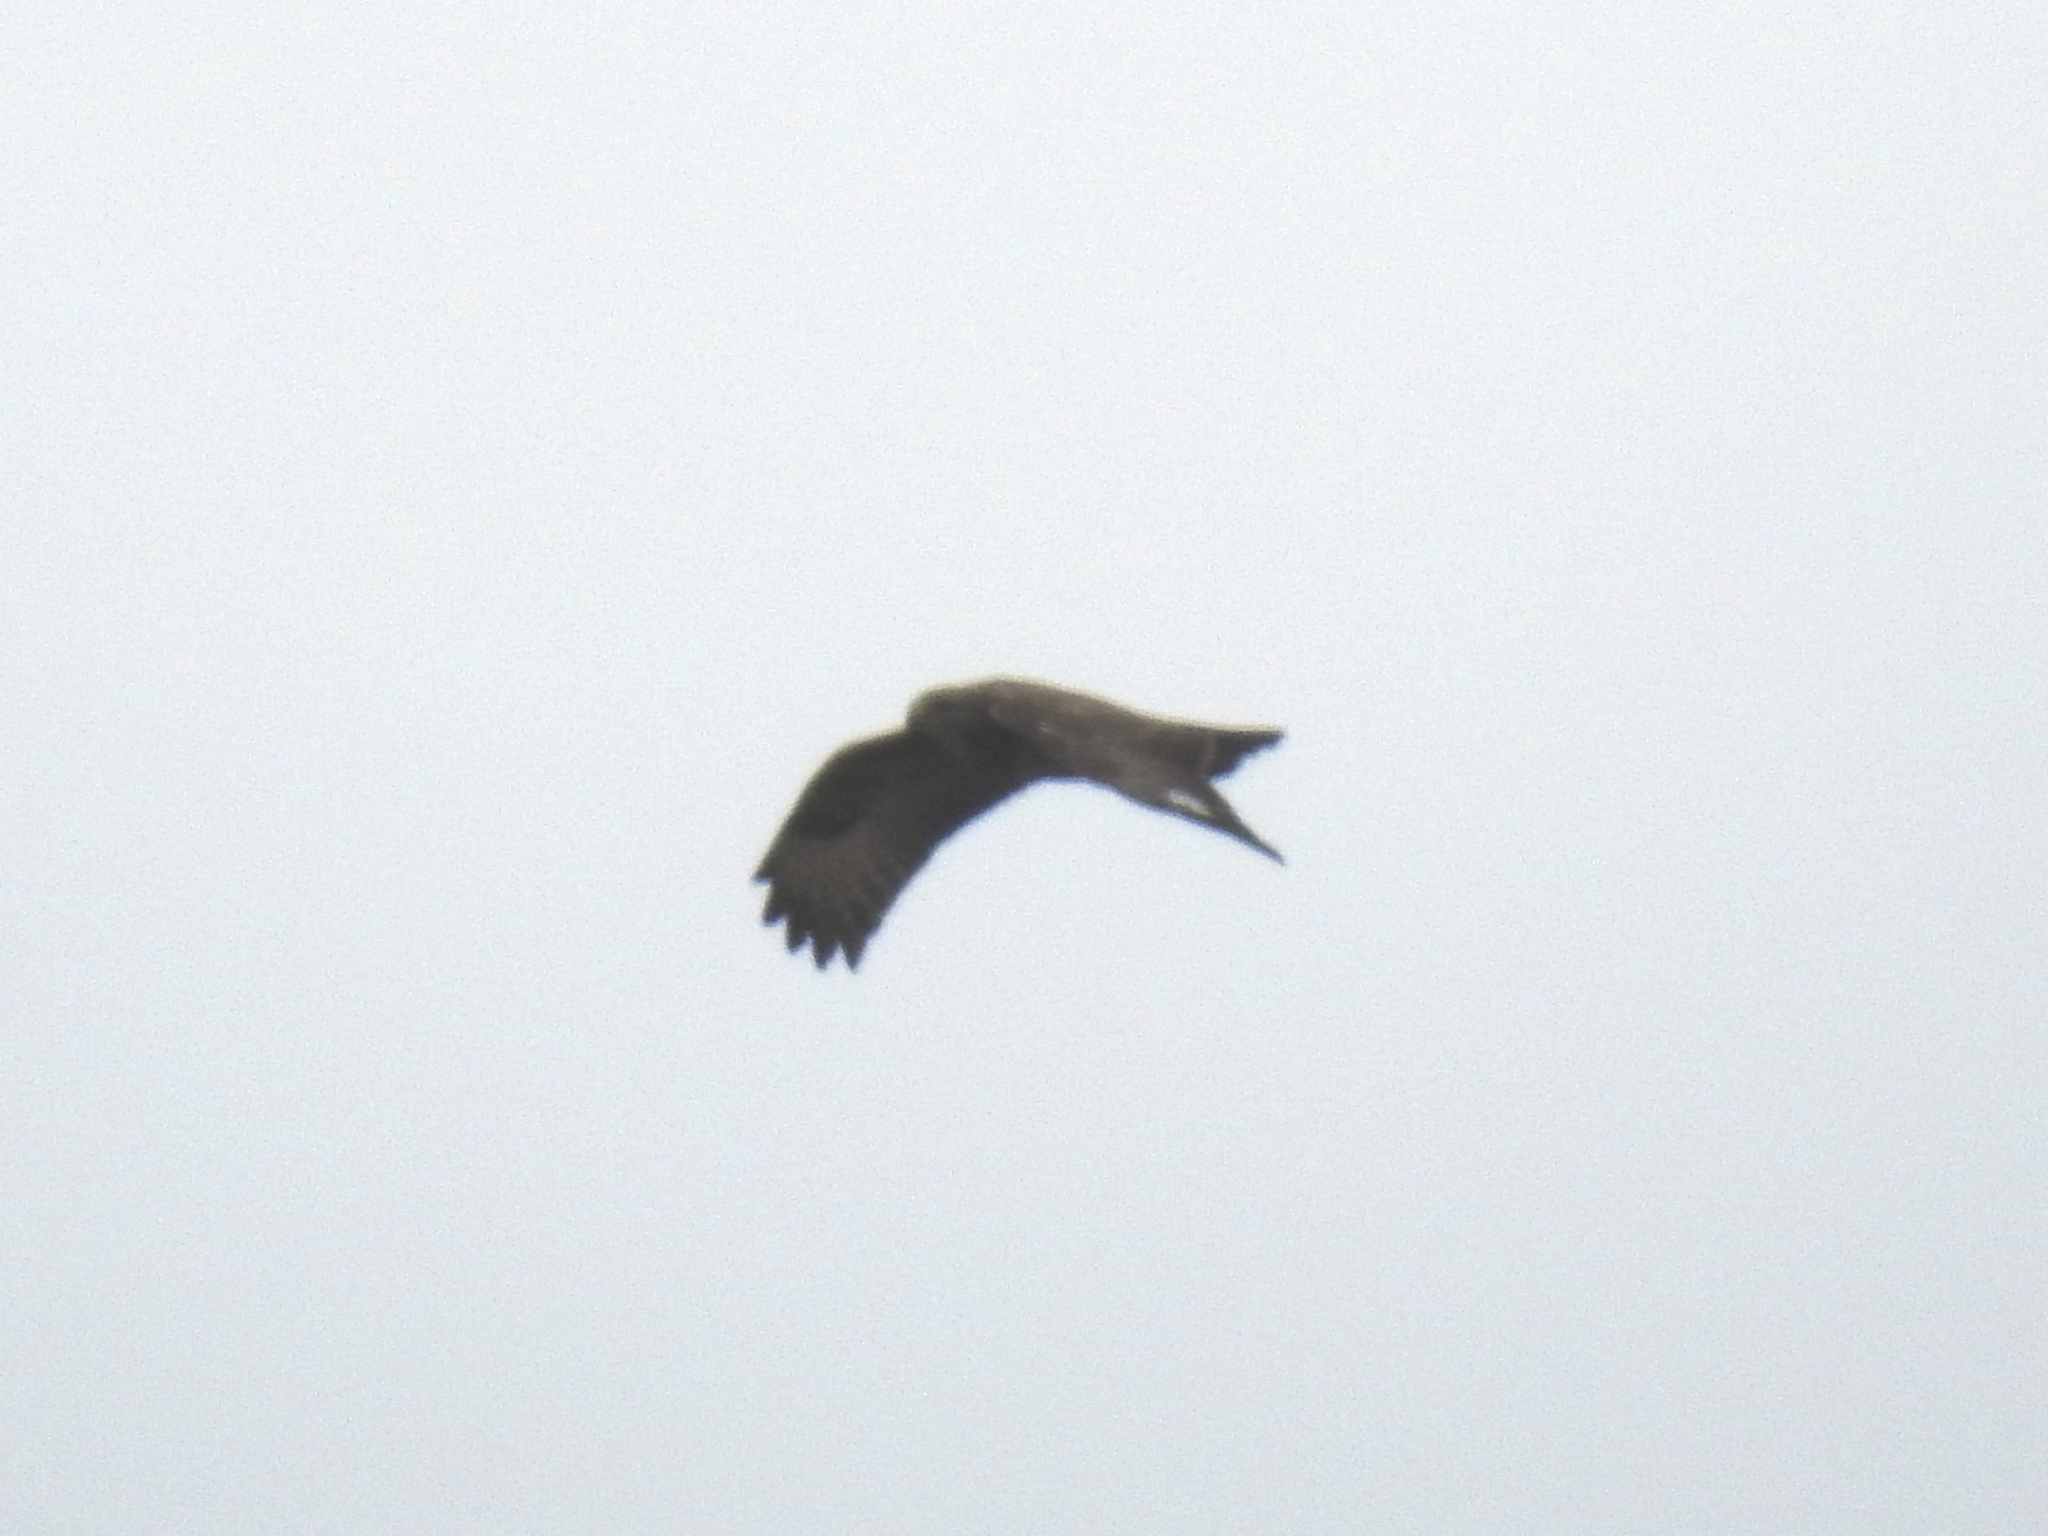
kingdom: Animalia
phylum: Chordata
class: Aves
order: Accipitriformes
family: Accipitridae
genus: Buteo
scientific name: Buteo buteo
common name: Common buzzard
